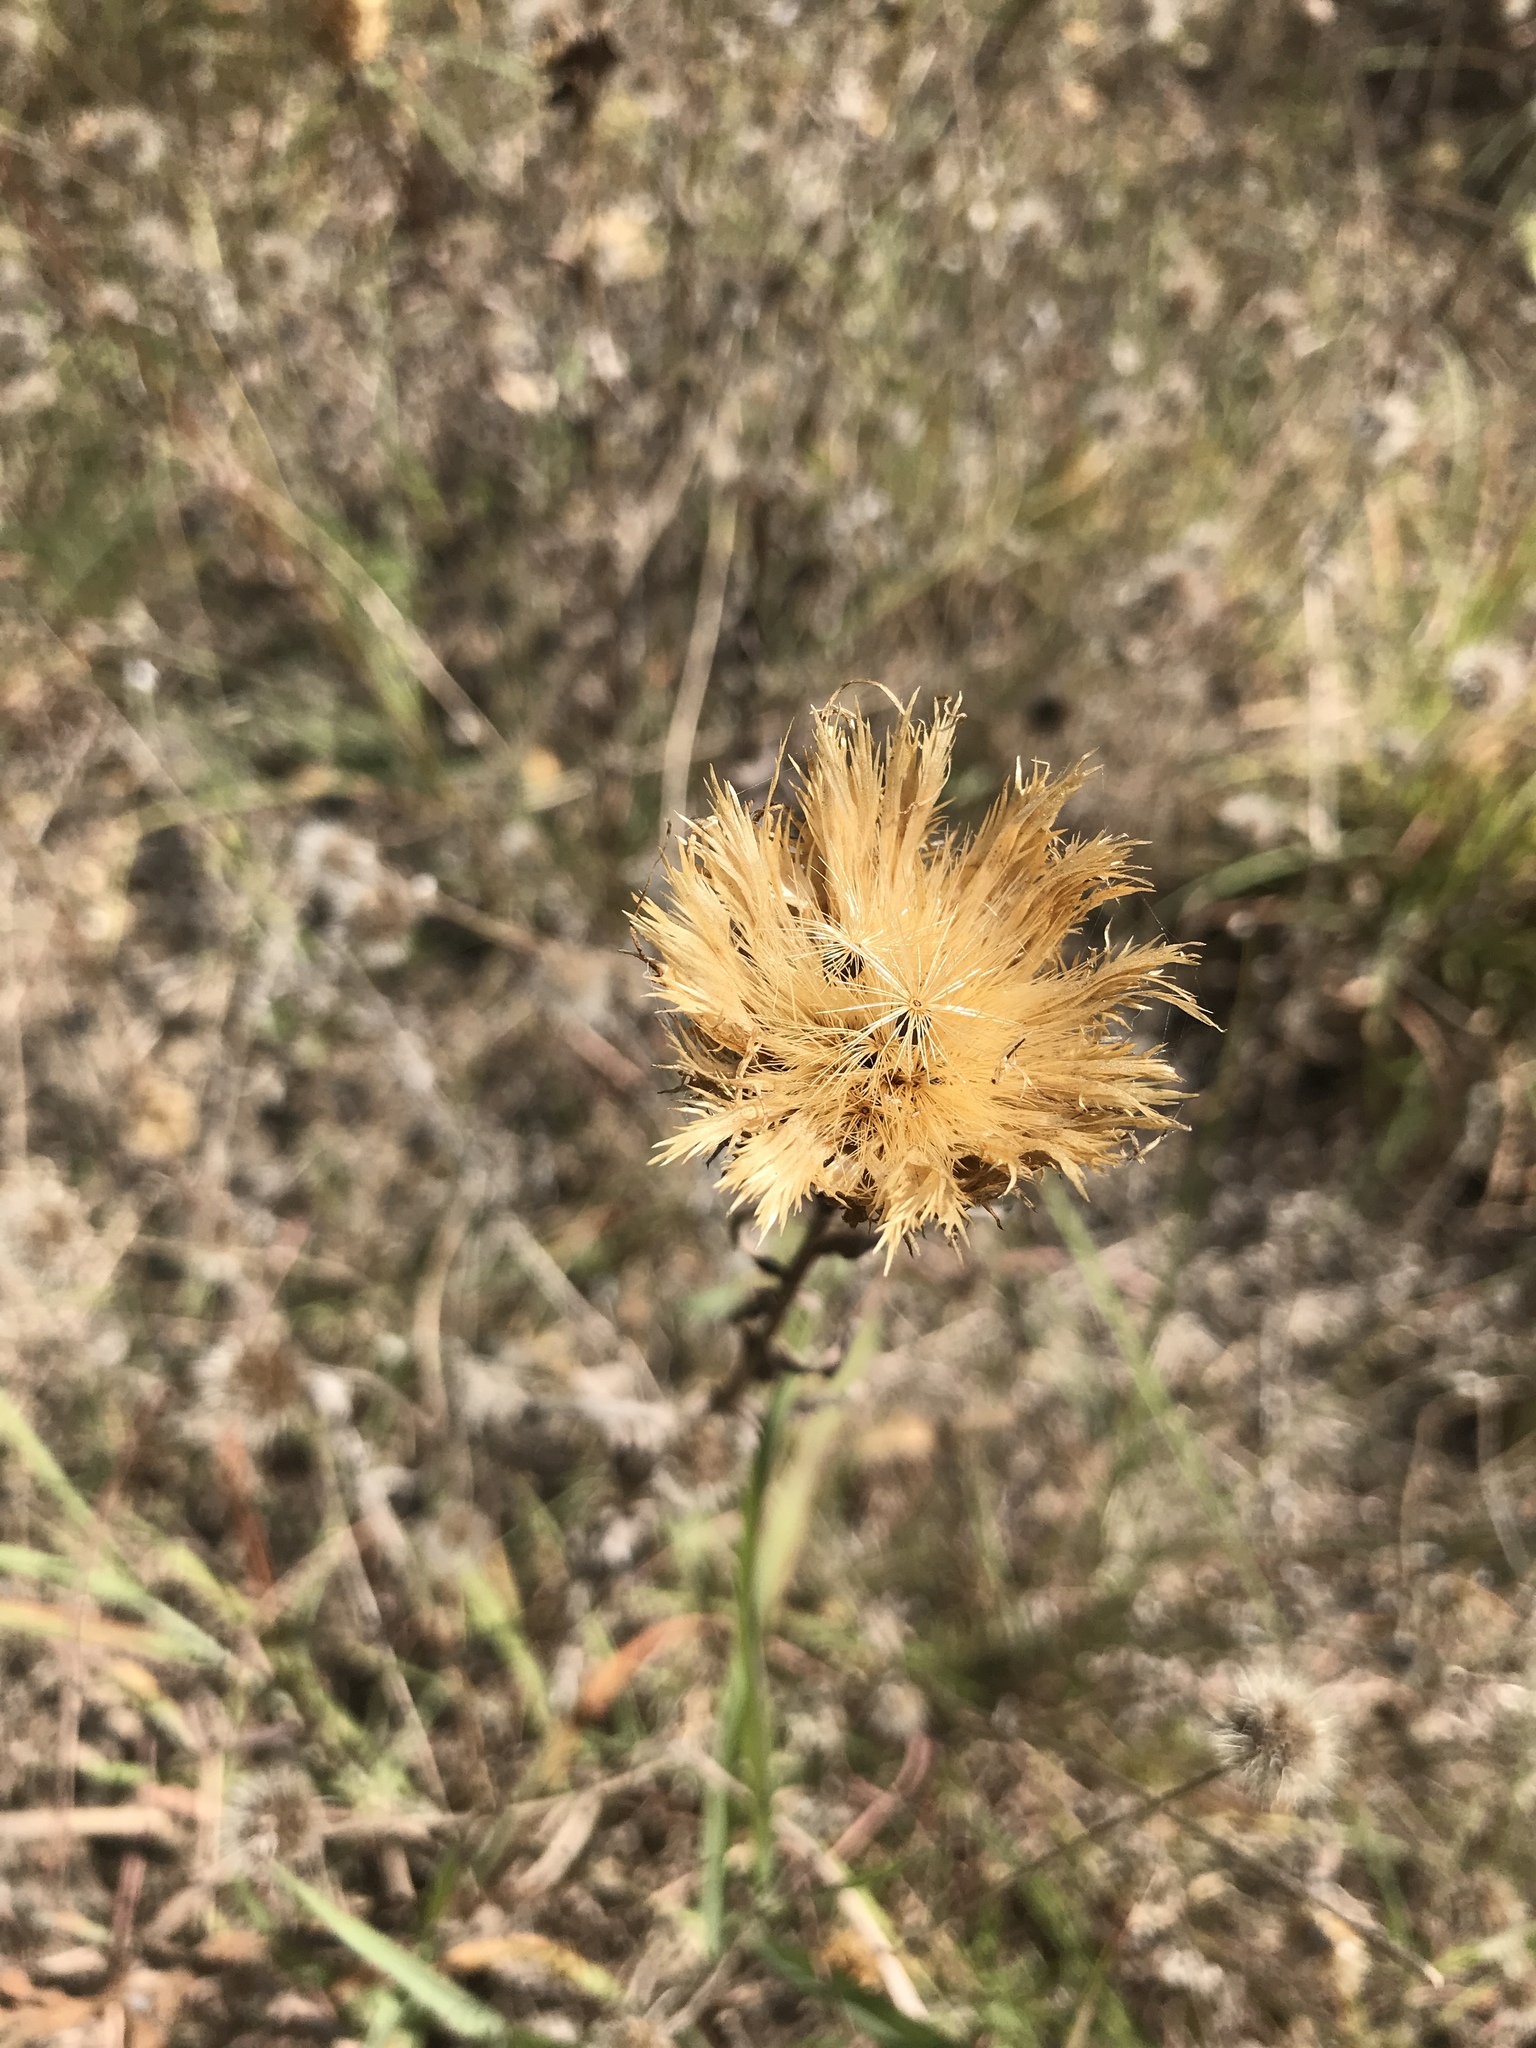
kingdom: Plantae
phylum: Tracheophyta
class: Magnoliopsida
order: Asterales
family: Asteraceae
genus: Plectocephalus
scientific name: Plectocephalus americanus
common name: American basket-flower
